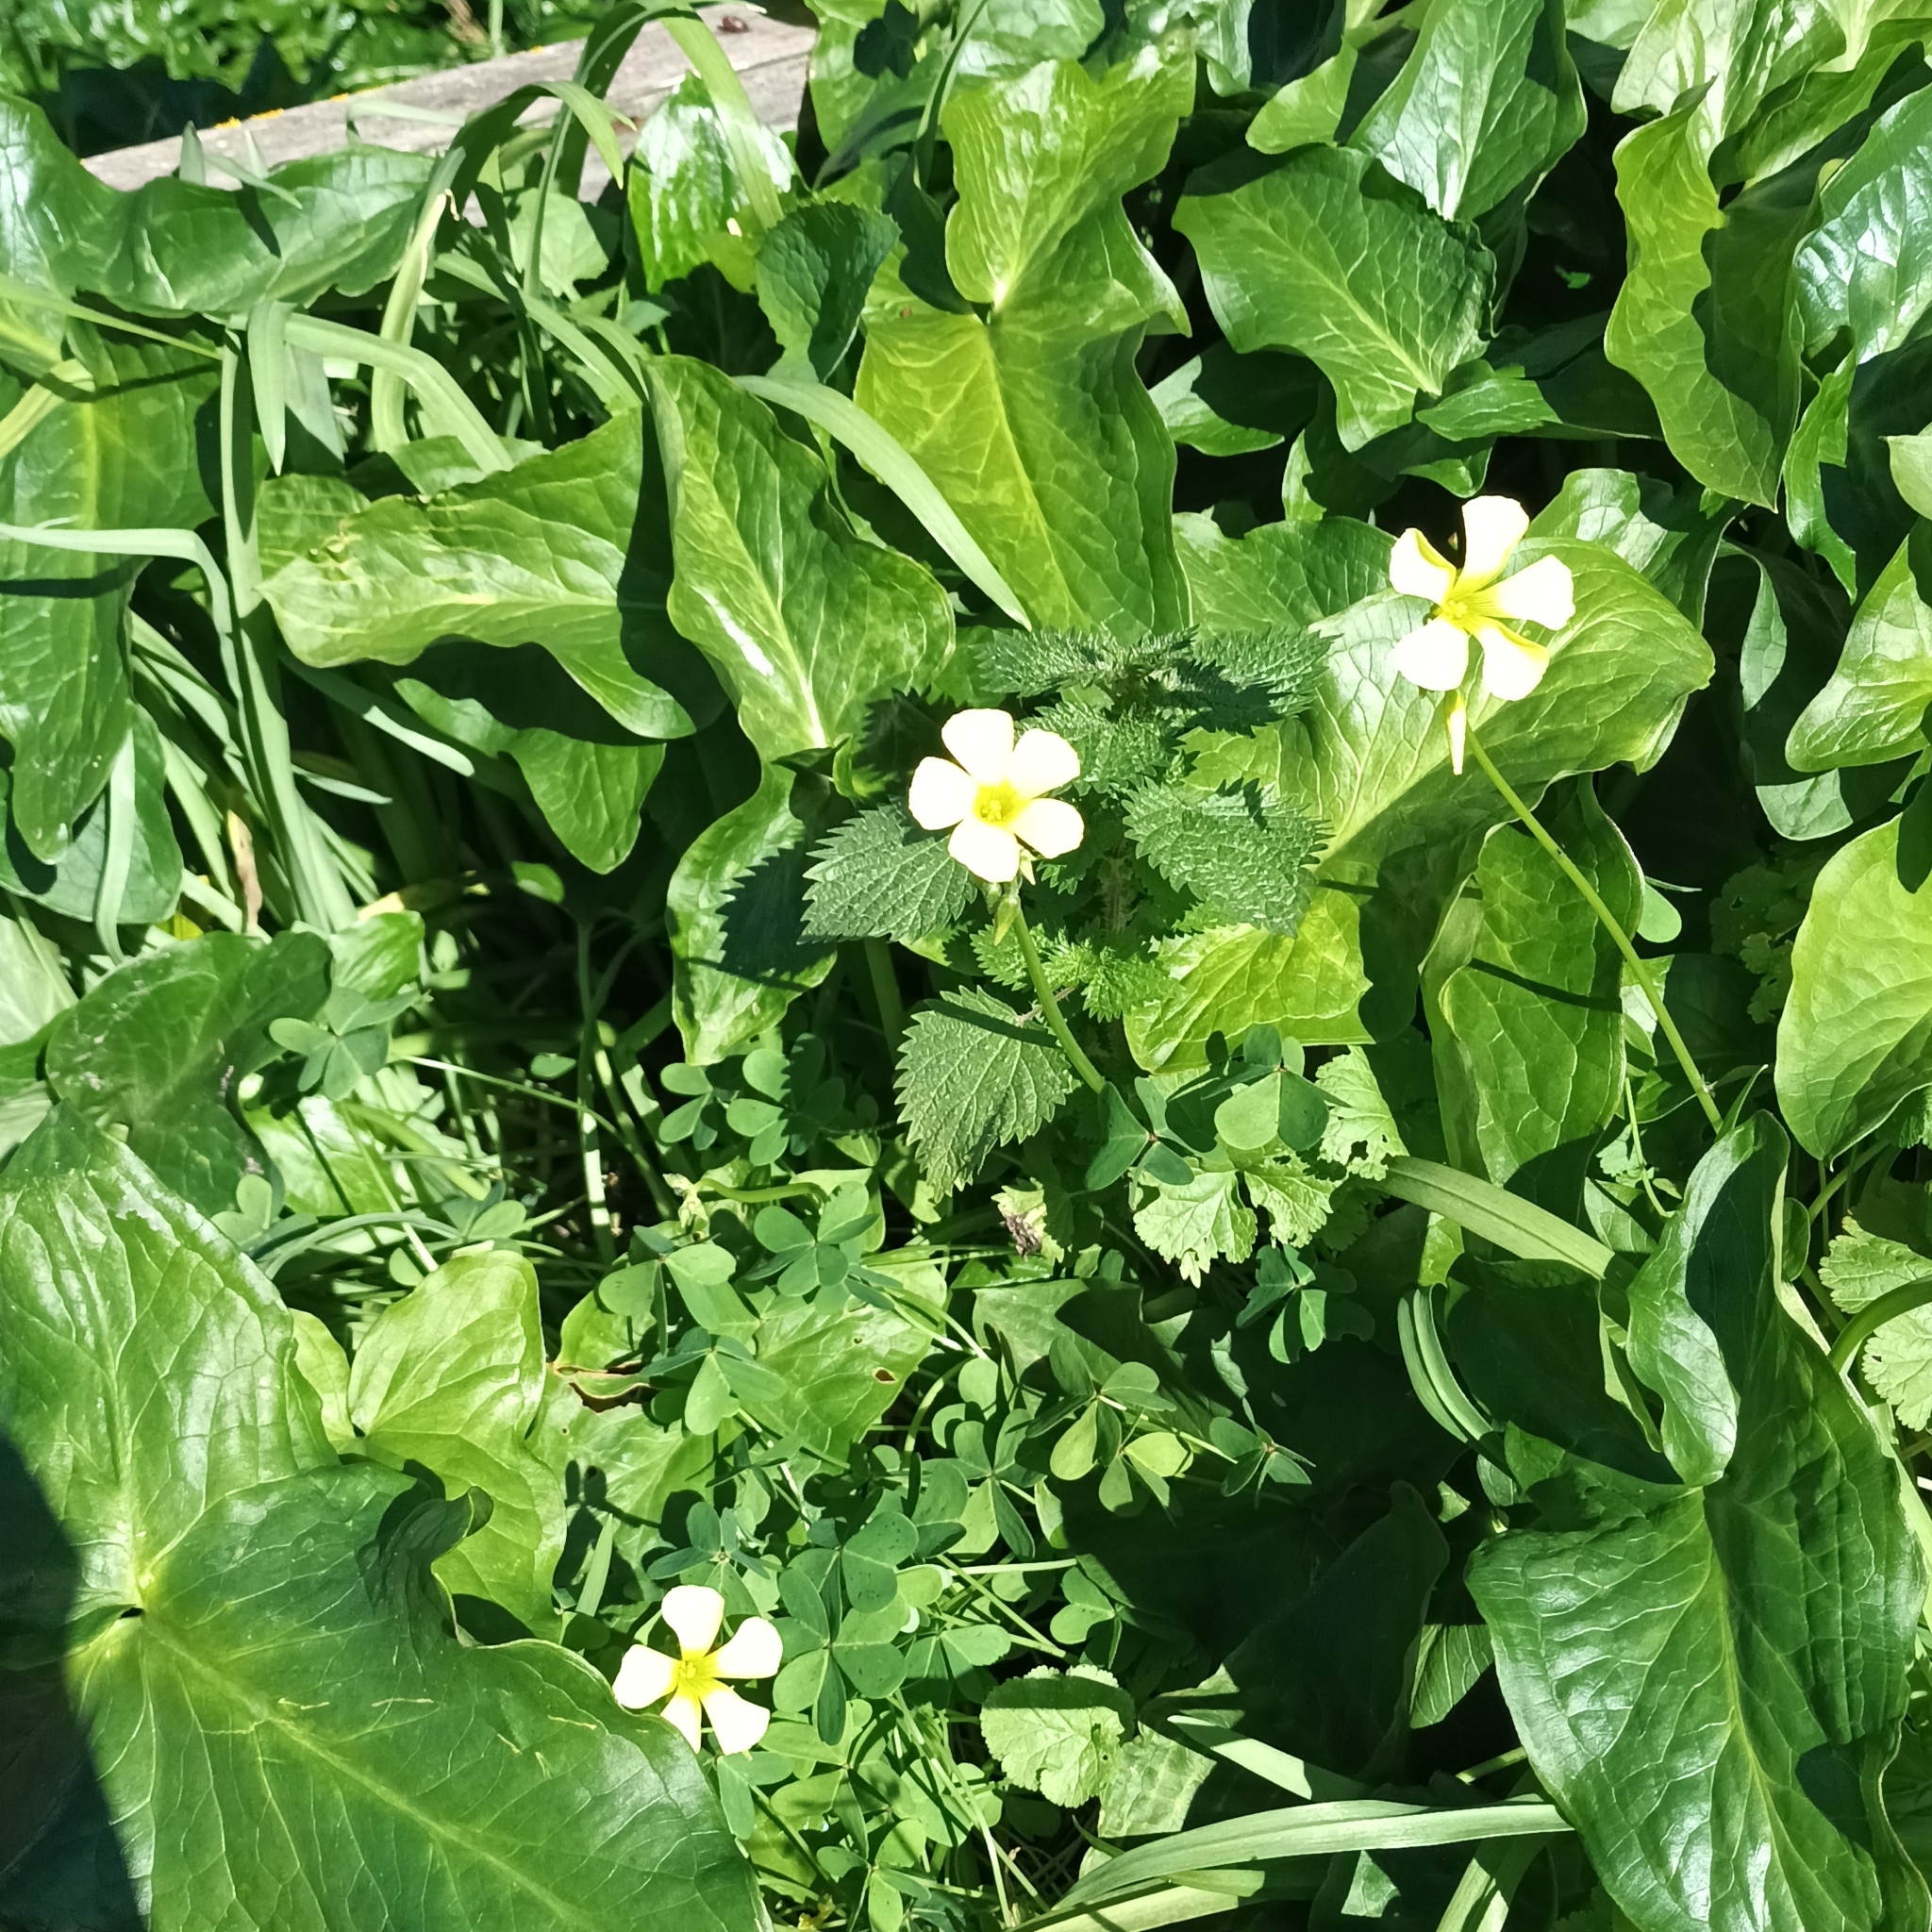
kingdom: Plantae
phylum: Tracheophyta
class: Magnoliopsida
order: Oxalidales
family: Oxalidaceae
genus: Oxalis
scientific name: Oxalis pes-caprae
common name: Bermuda-buttercup
